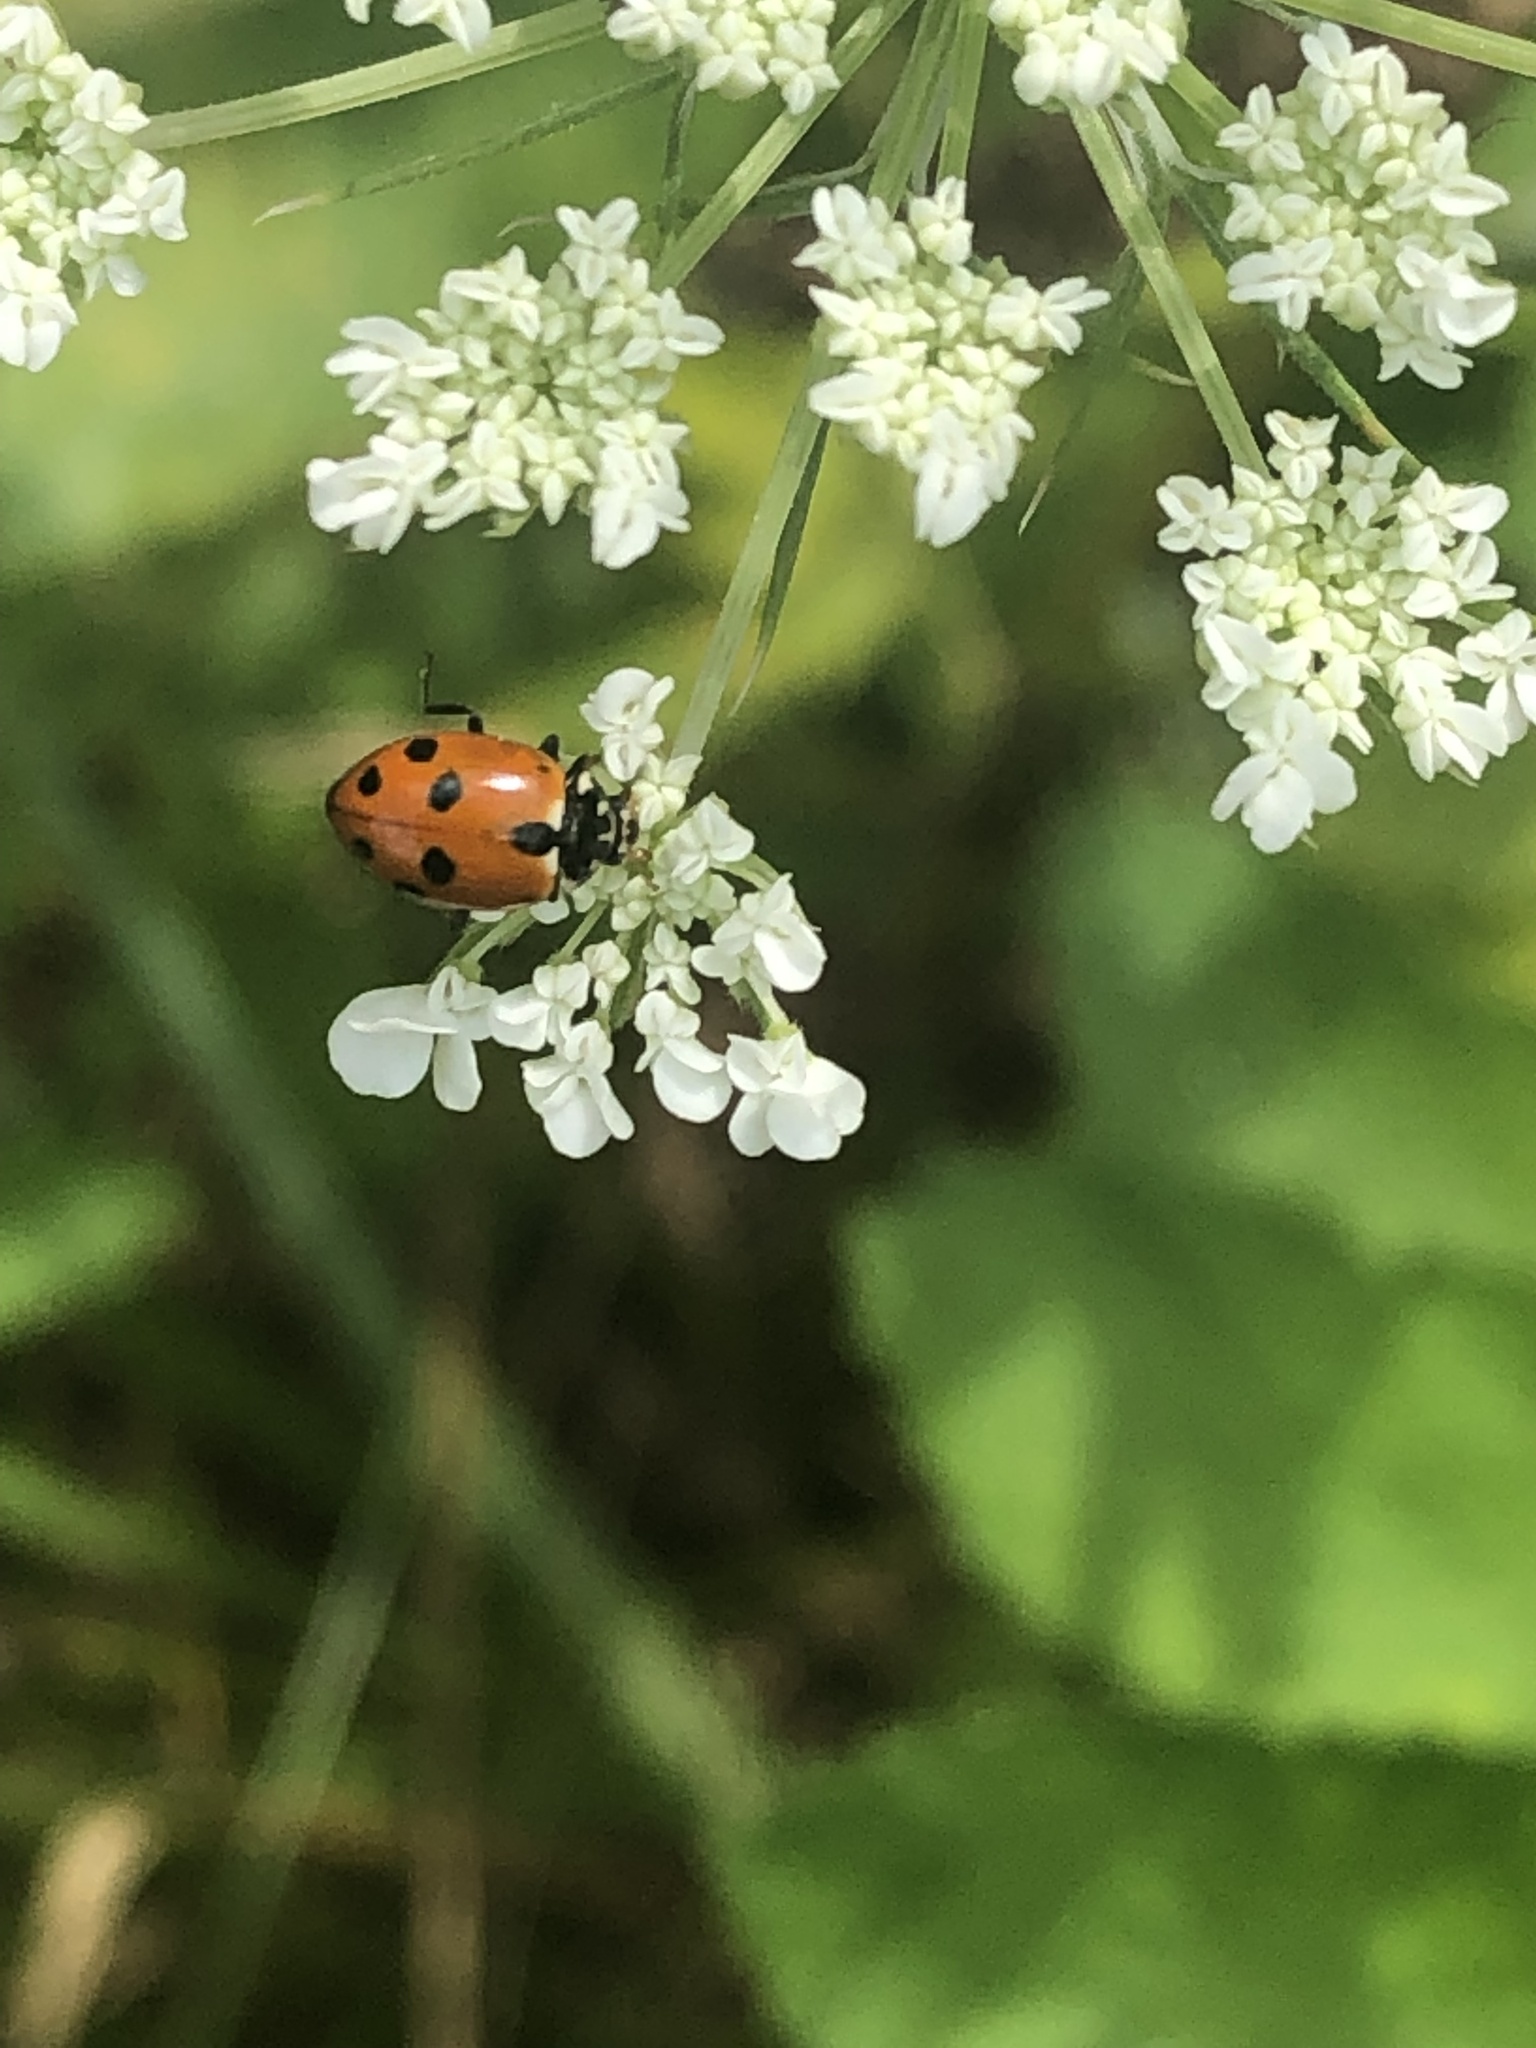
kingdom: Animalia
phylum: Arthropoda
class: Insecta
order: Coleoptera
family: Coccinellidae
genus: Hippodamia
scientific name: Hippodamia variegata
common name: Ladybird beetle
